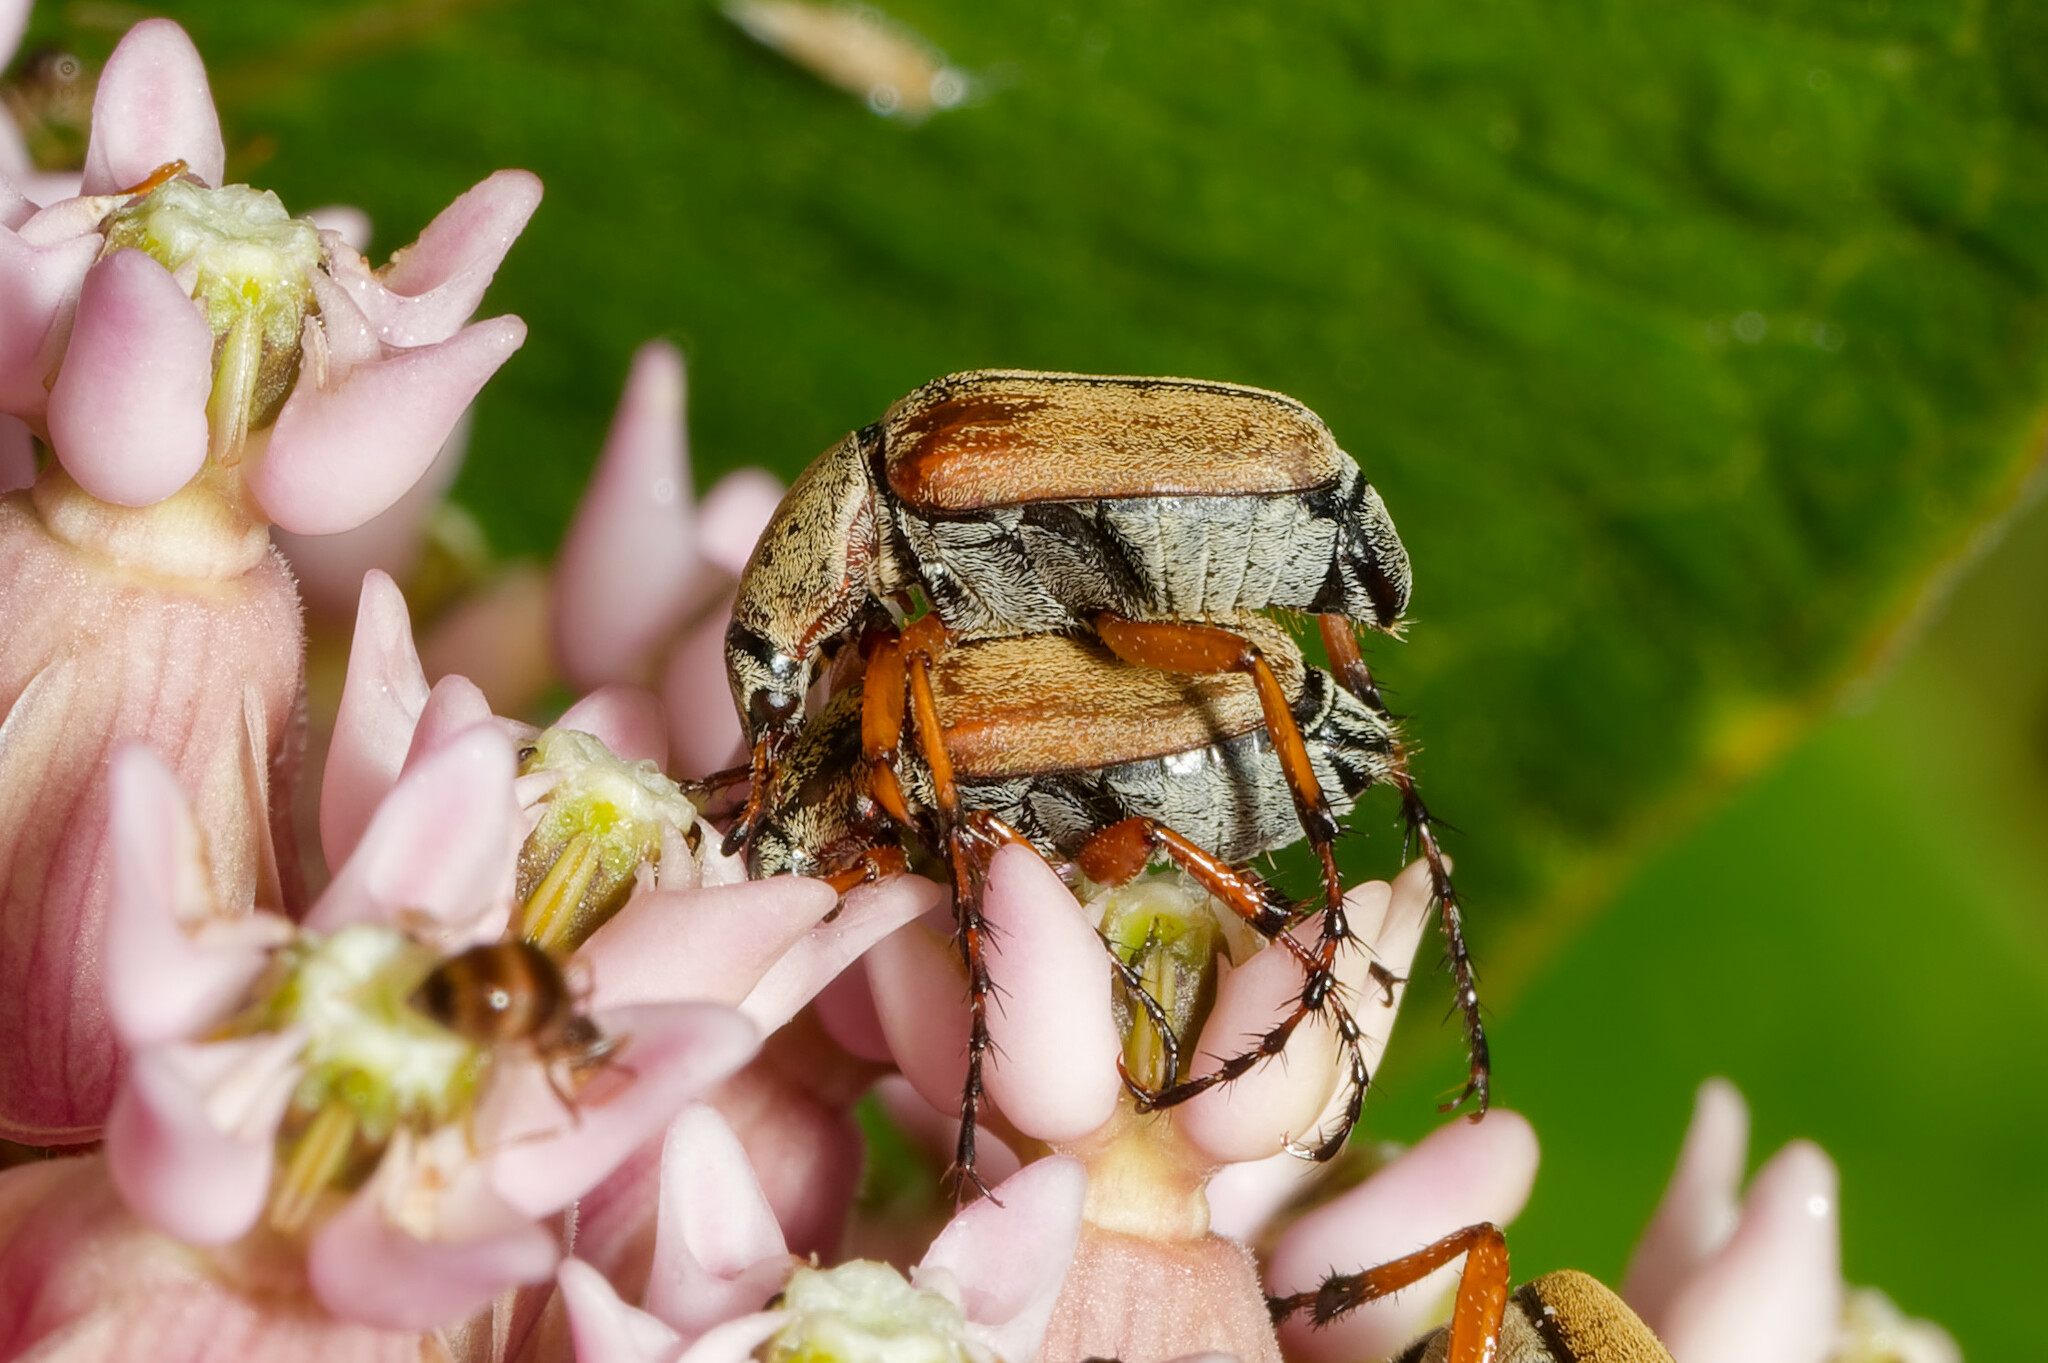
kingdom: Animalia
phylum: Arthropoda
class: Insecta
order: Coleoptera
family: Scarabaeidae
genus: Macrodactylus
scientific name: Macrodactylus subspinosus
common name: American rose chafer
